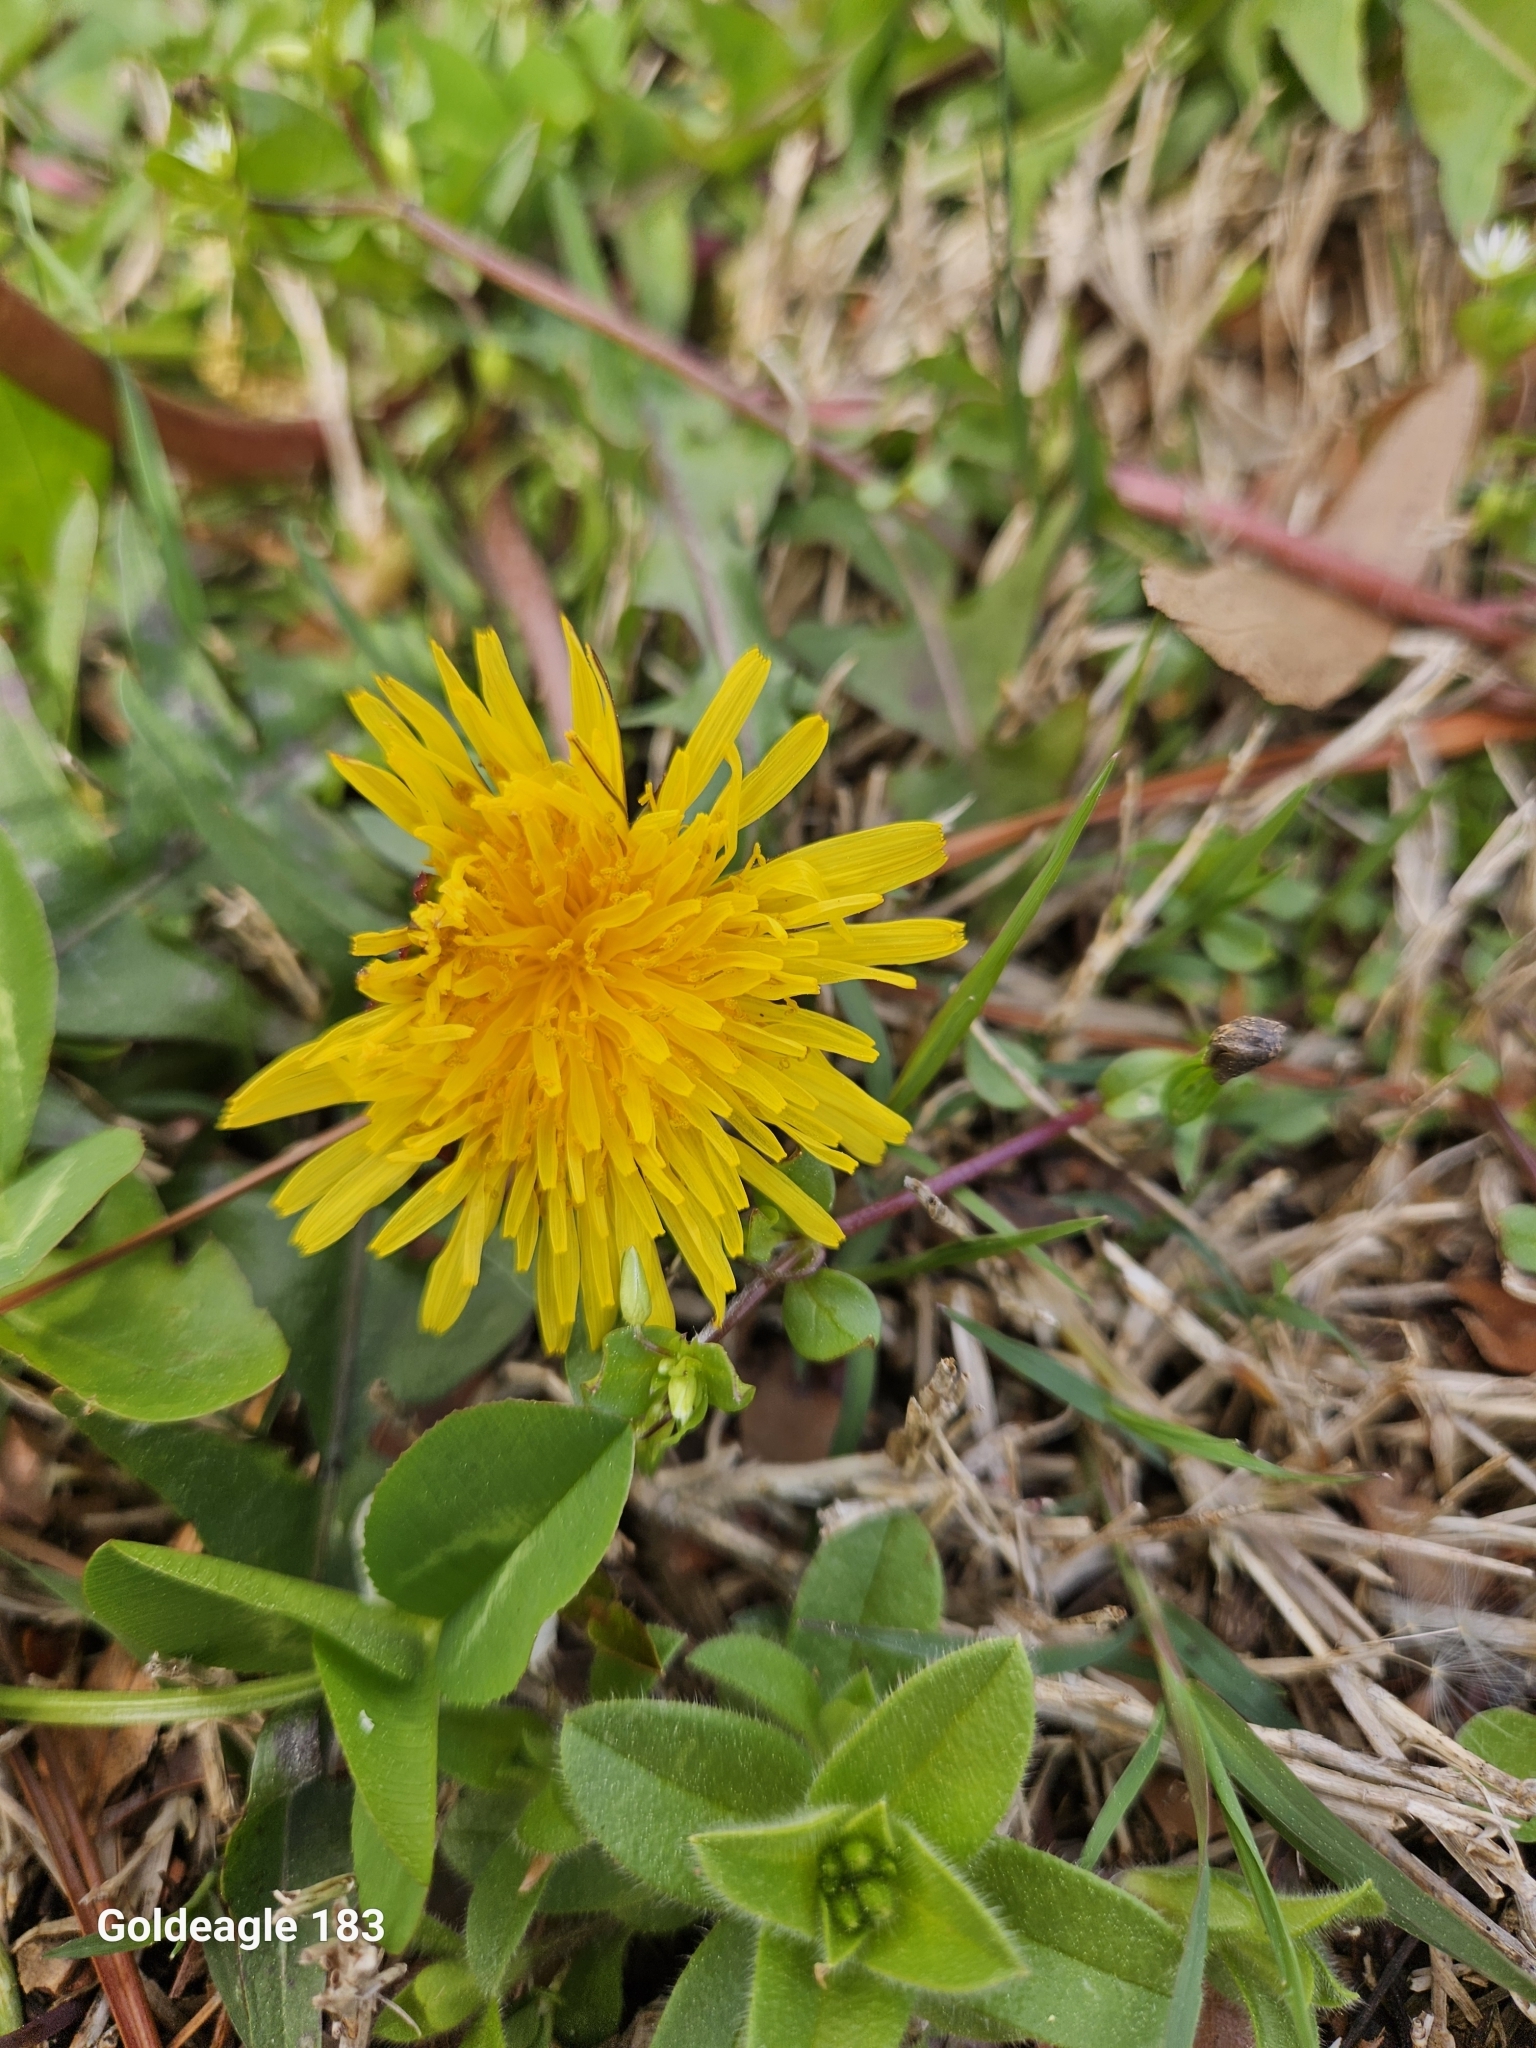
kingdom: Plantae
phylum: Tracheophyta
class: Magnoliopsida
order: Asterales
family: Asteraceae
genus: Taraxacum
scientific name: Taraxacum officinale
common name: Common dandelion
